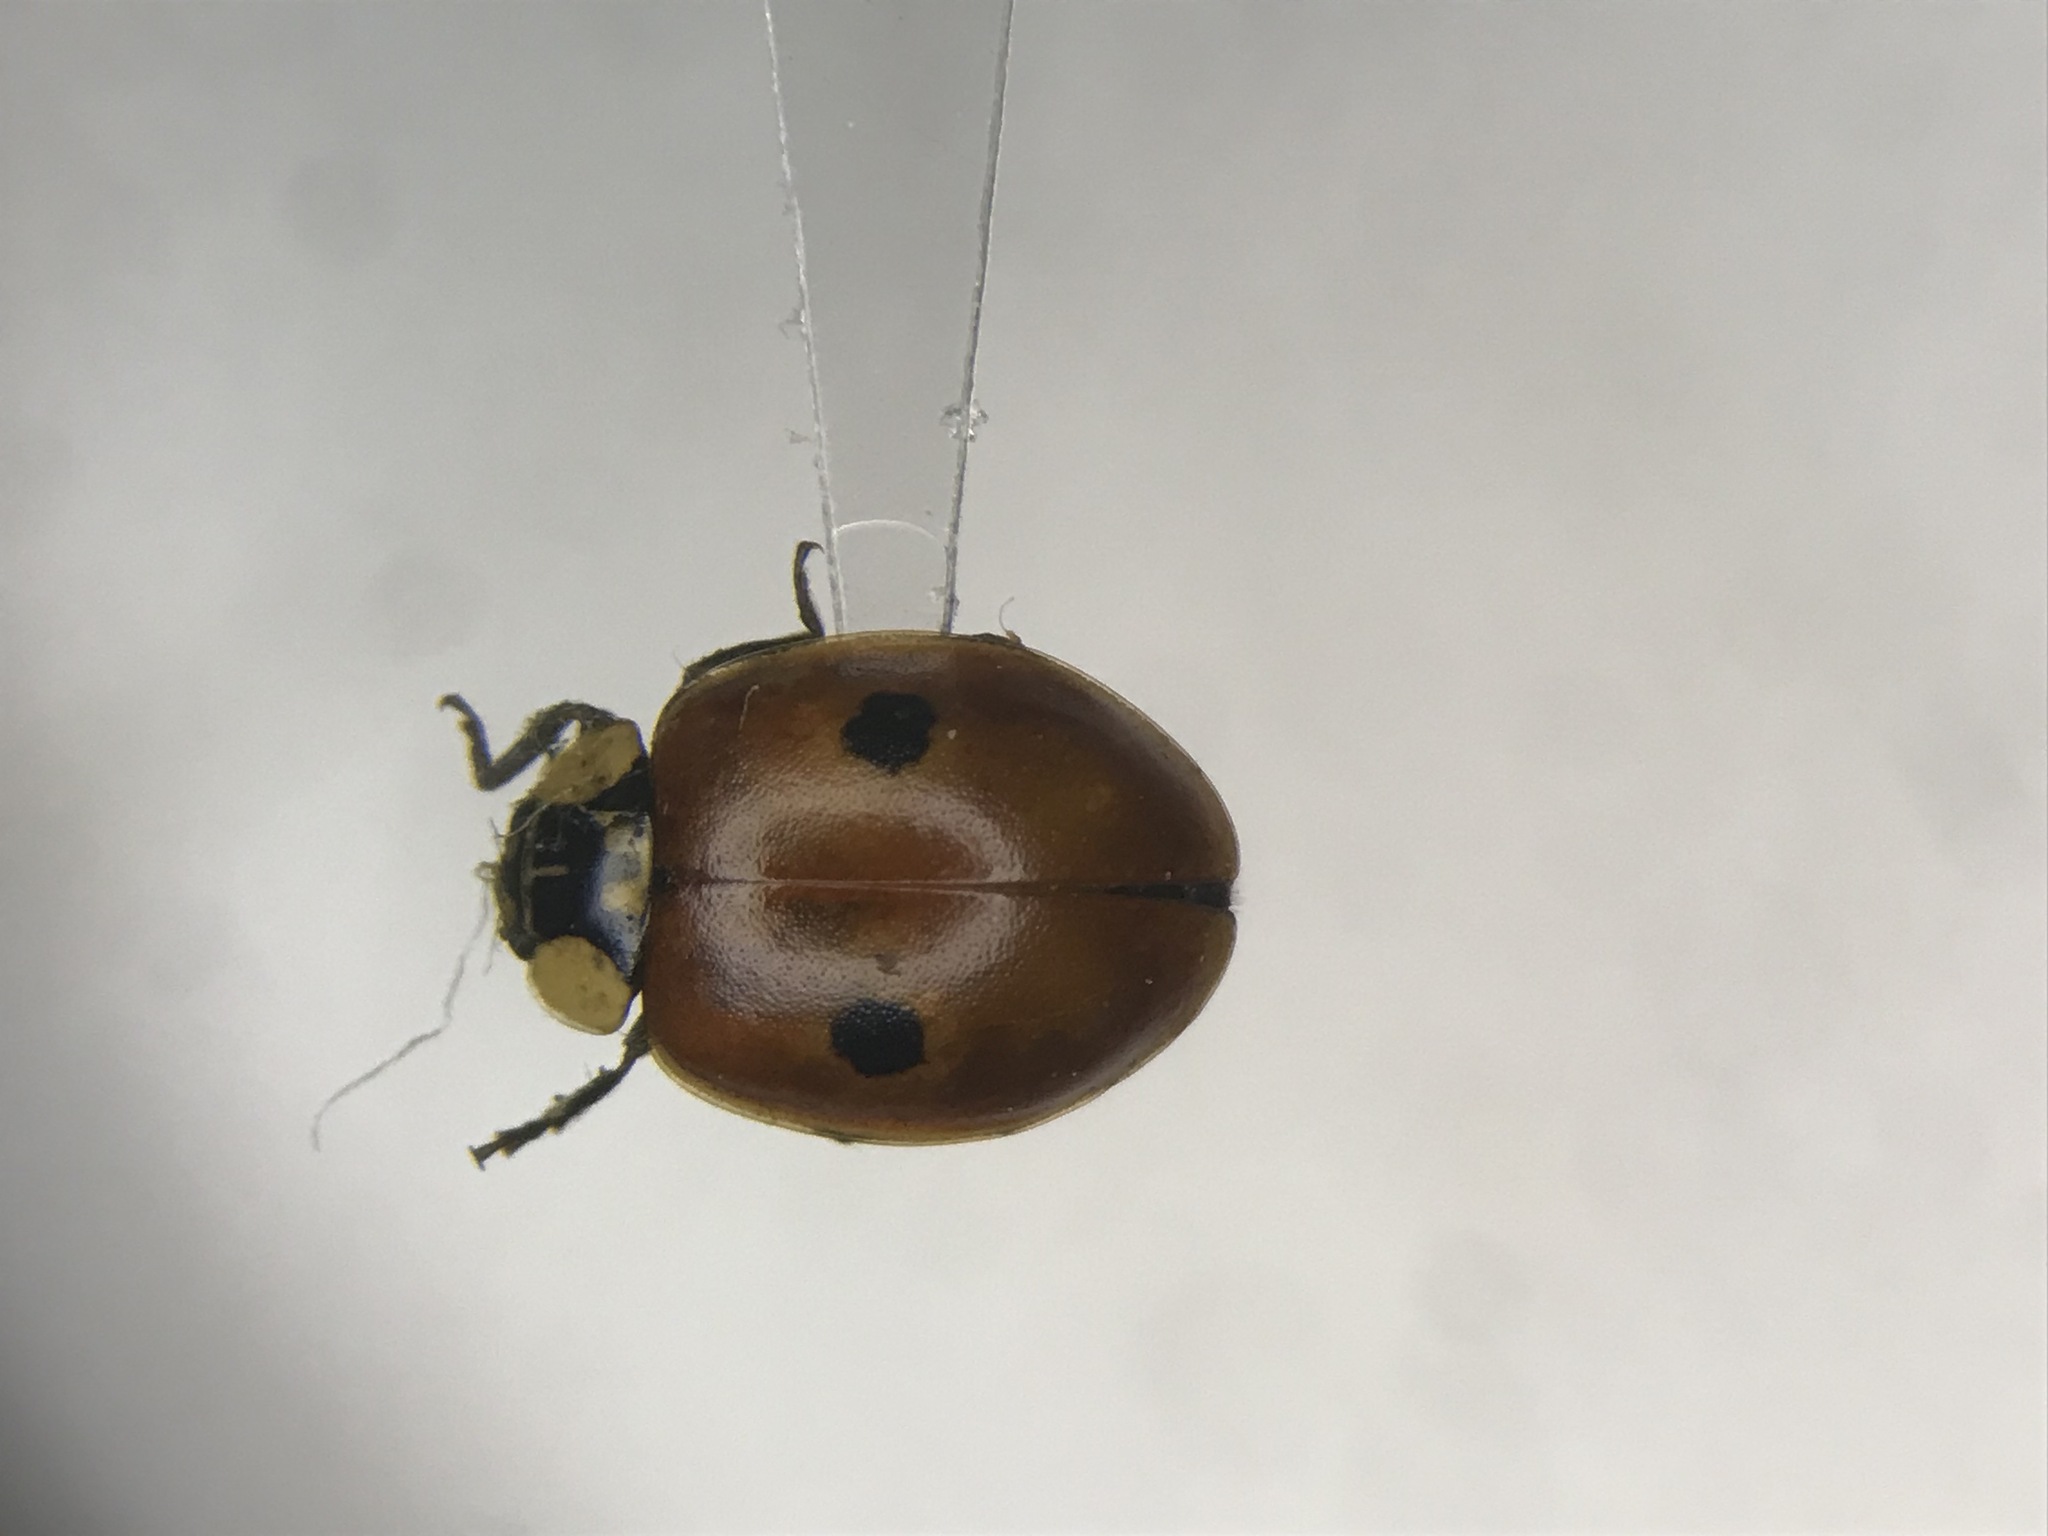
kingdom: Animalia
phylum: Arthropoda
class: Insecta
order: Coleoptera
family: Coccinellidae
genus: Adalia
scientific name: Adalia bipunctata
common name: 2-spot ladybird
